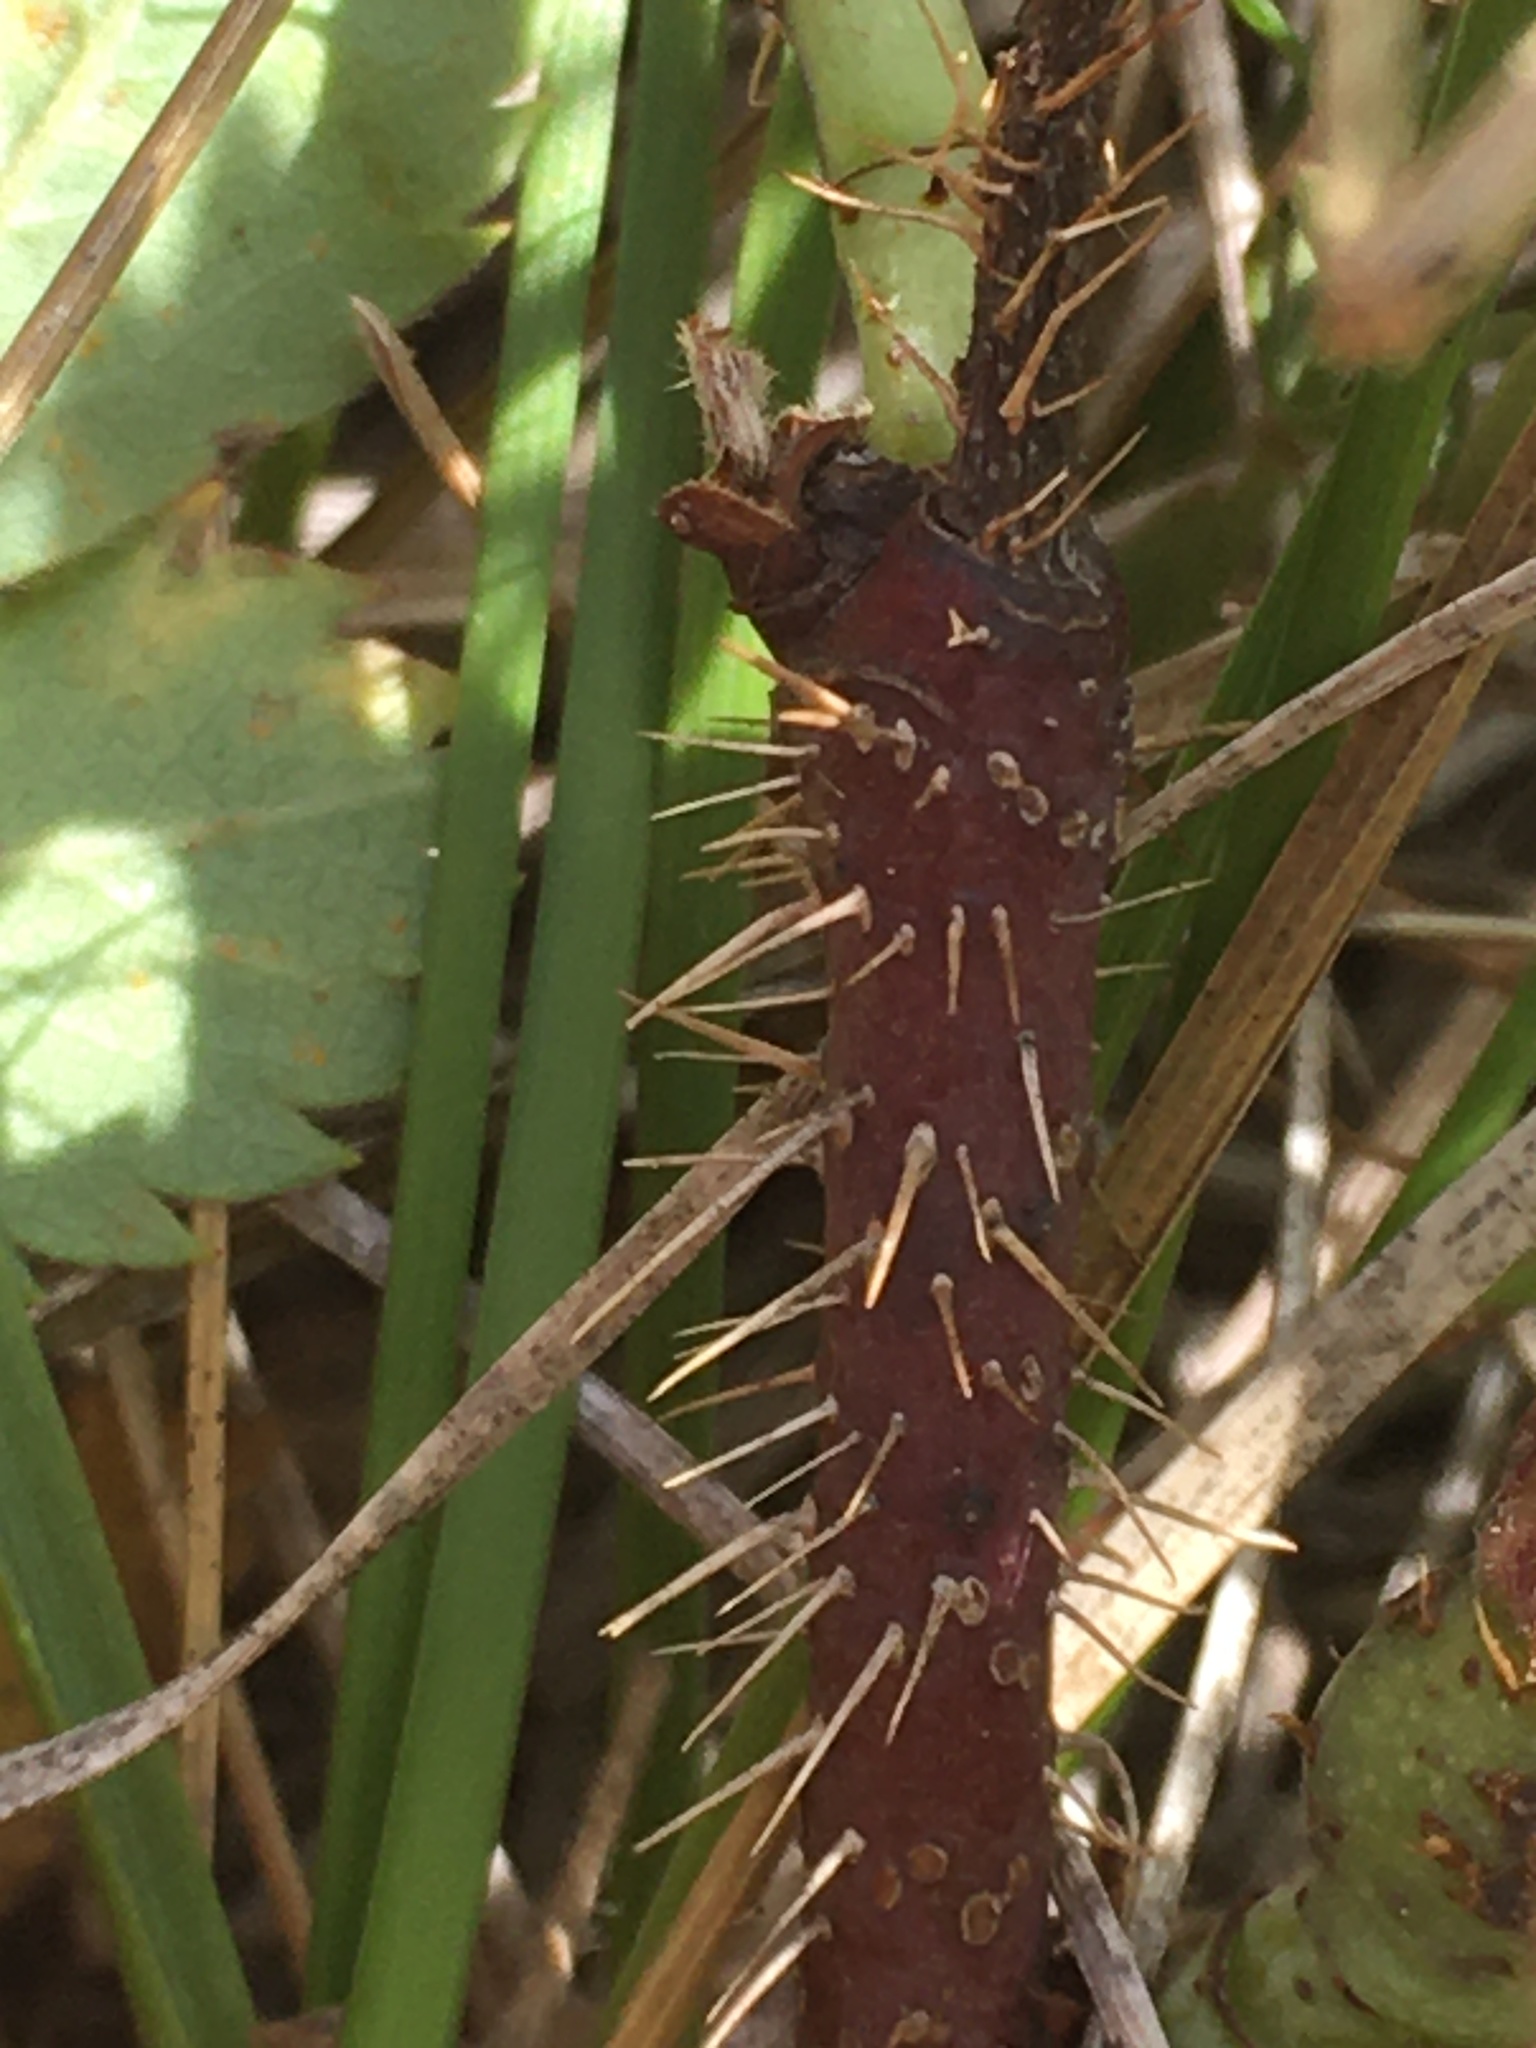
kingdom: Plantae
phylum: Tracheophyta
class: Magnoliopsida
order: Rosales
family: Rosaceae
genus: Rosa
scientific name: Rosa arkansana
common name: Prairie rose
